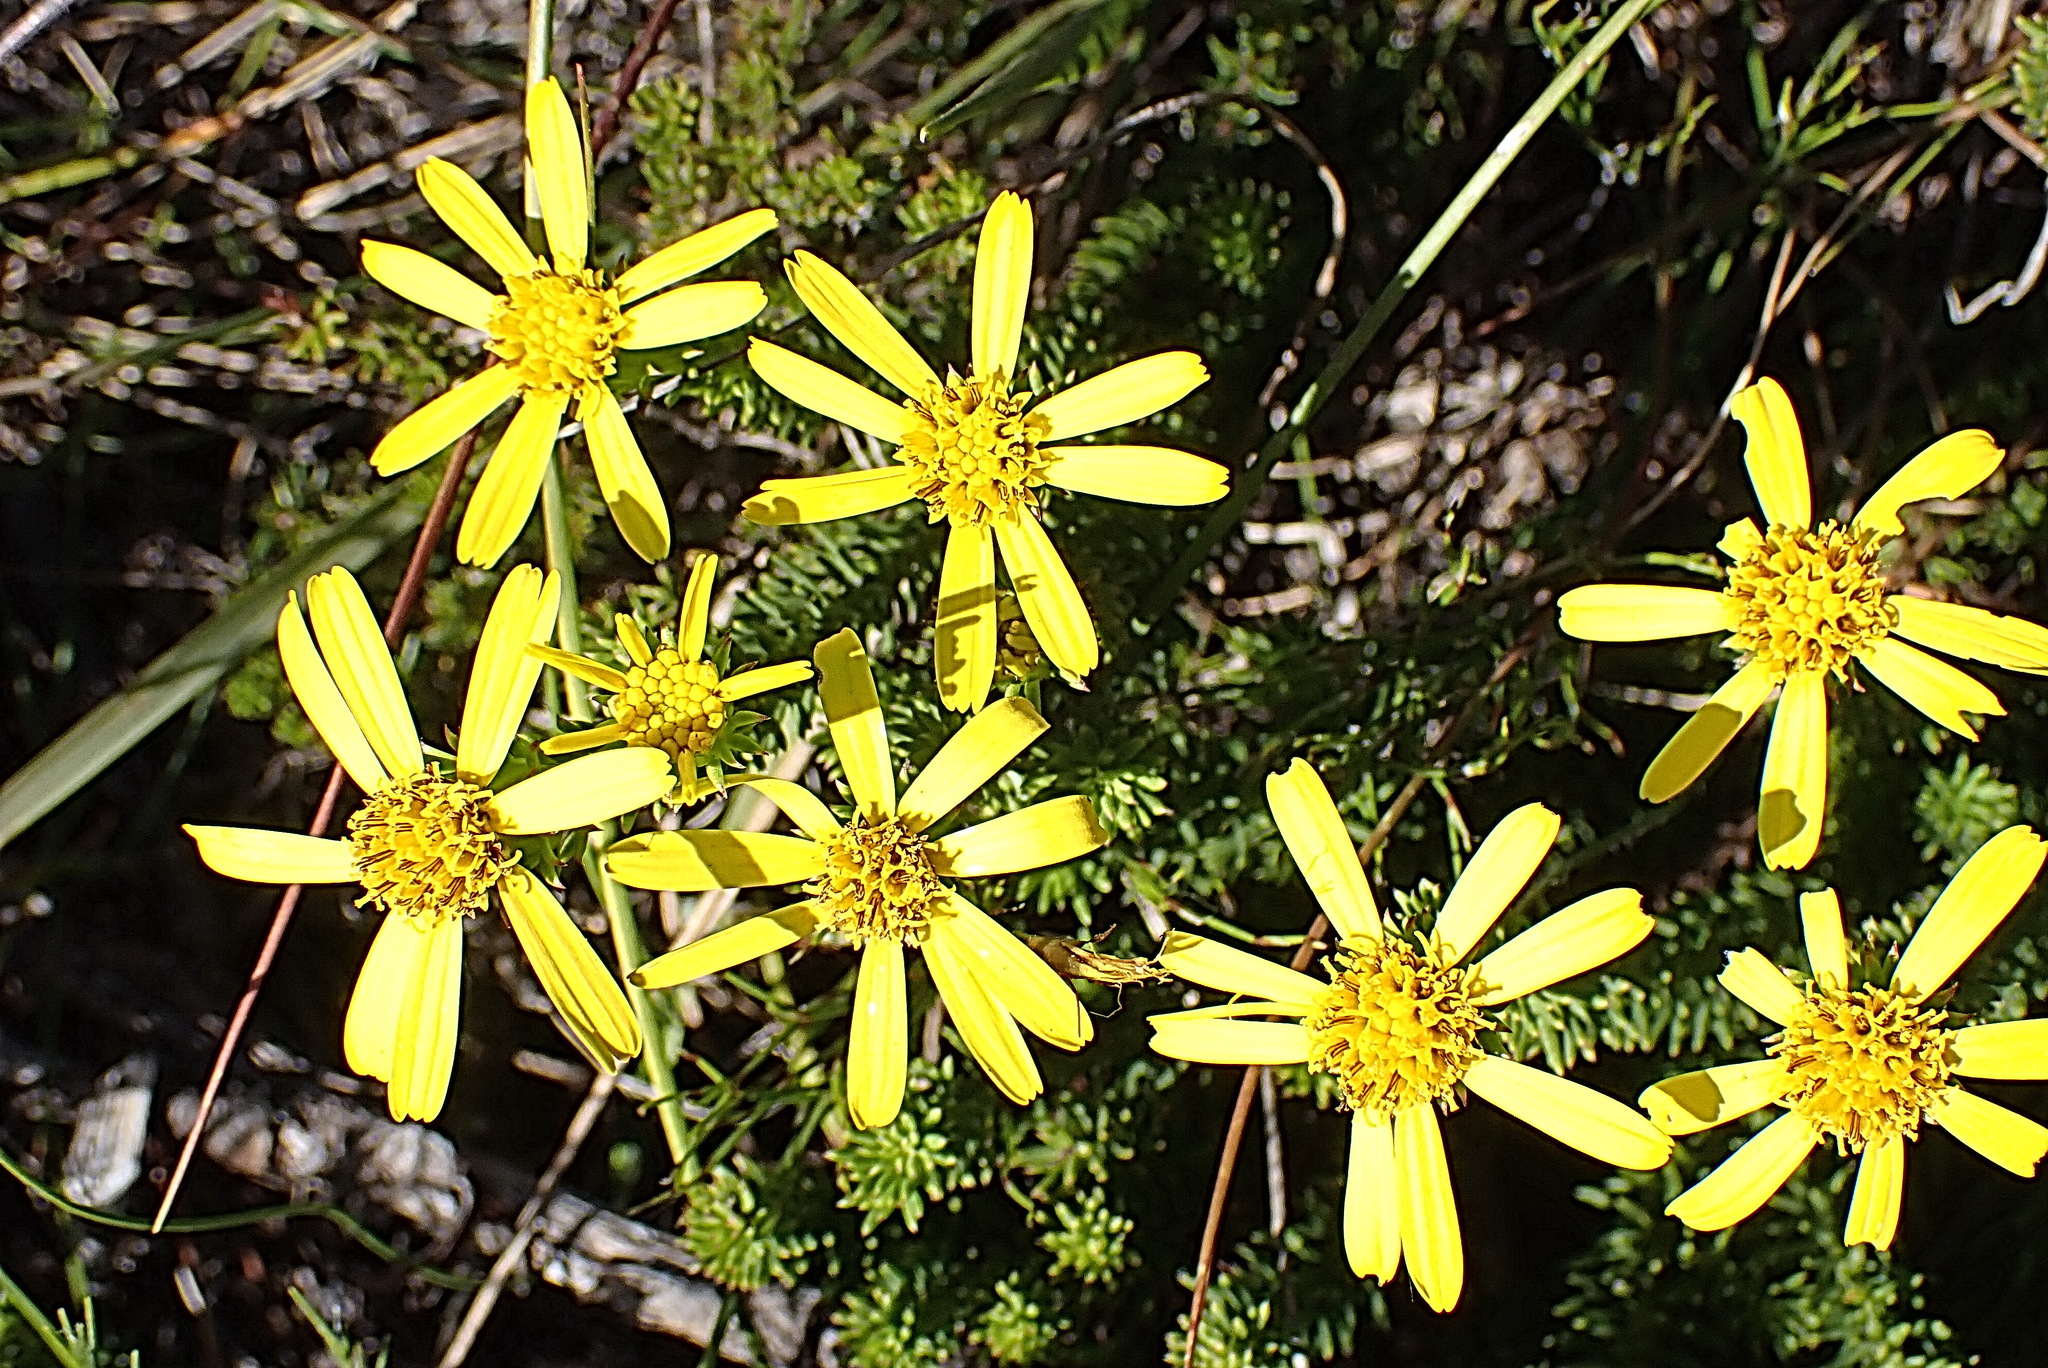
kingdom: Plantae
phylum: Tracheophyta
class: Magnoliopsida
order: Asterales
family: Asteraceae
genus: Senecio
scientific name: Senecio pinifolius
